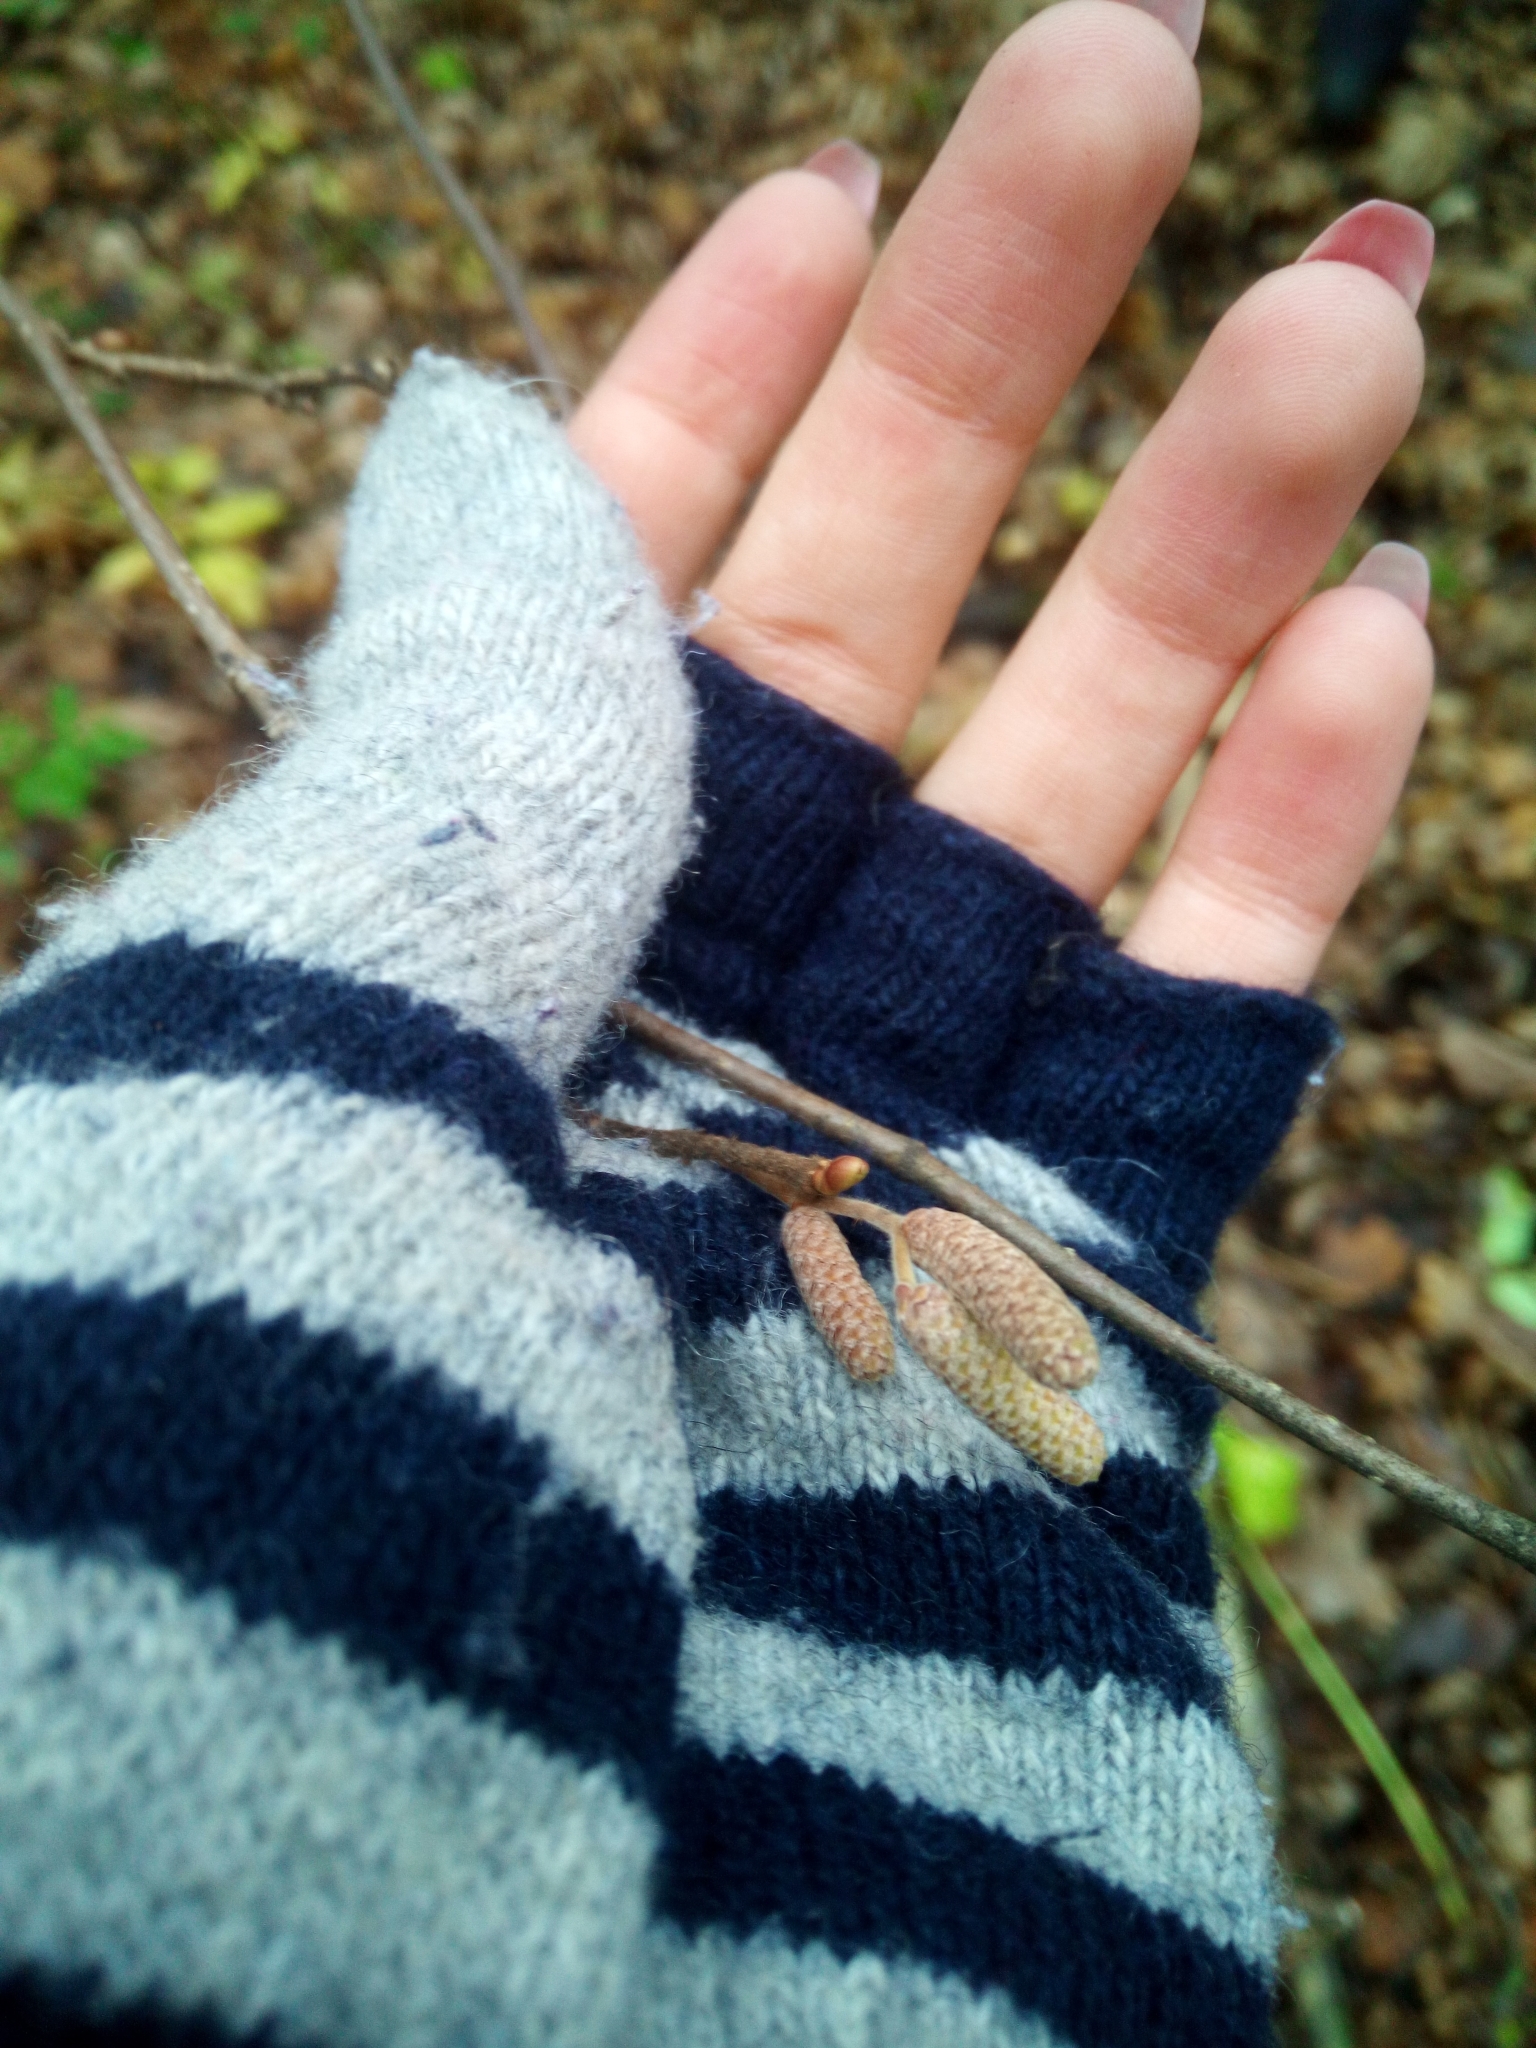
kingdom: Plantae
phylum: Tracheophyta
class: Magnoliopsida
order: Fagales
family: Betulaceae
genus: Corylus
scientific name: Corylus avellana
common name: European hazel
